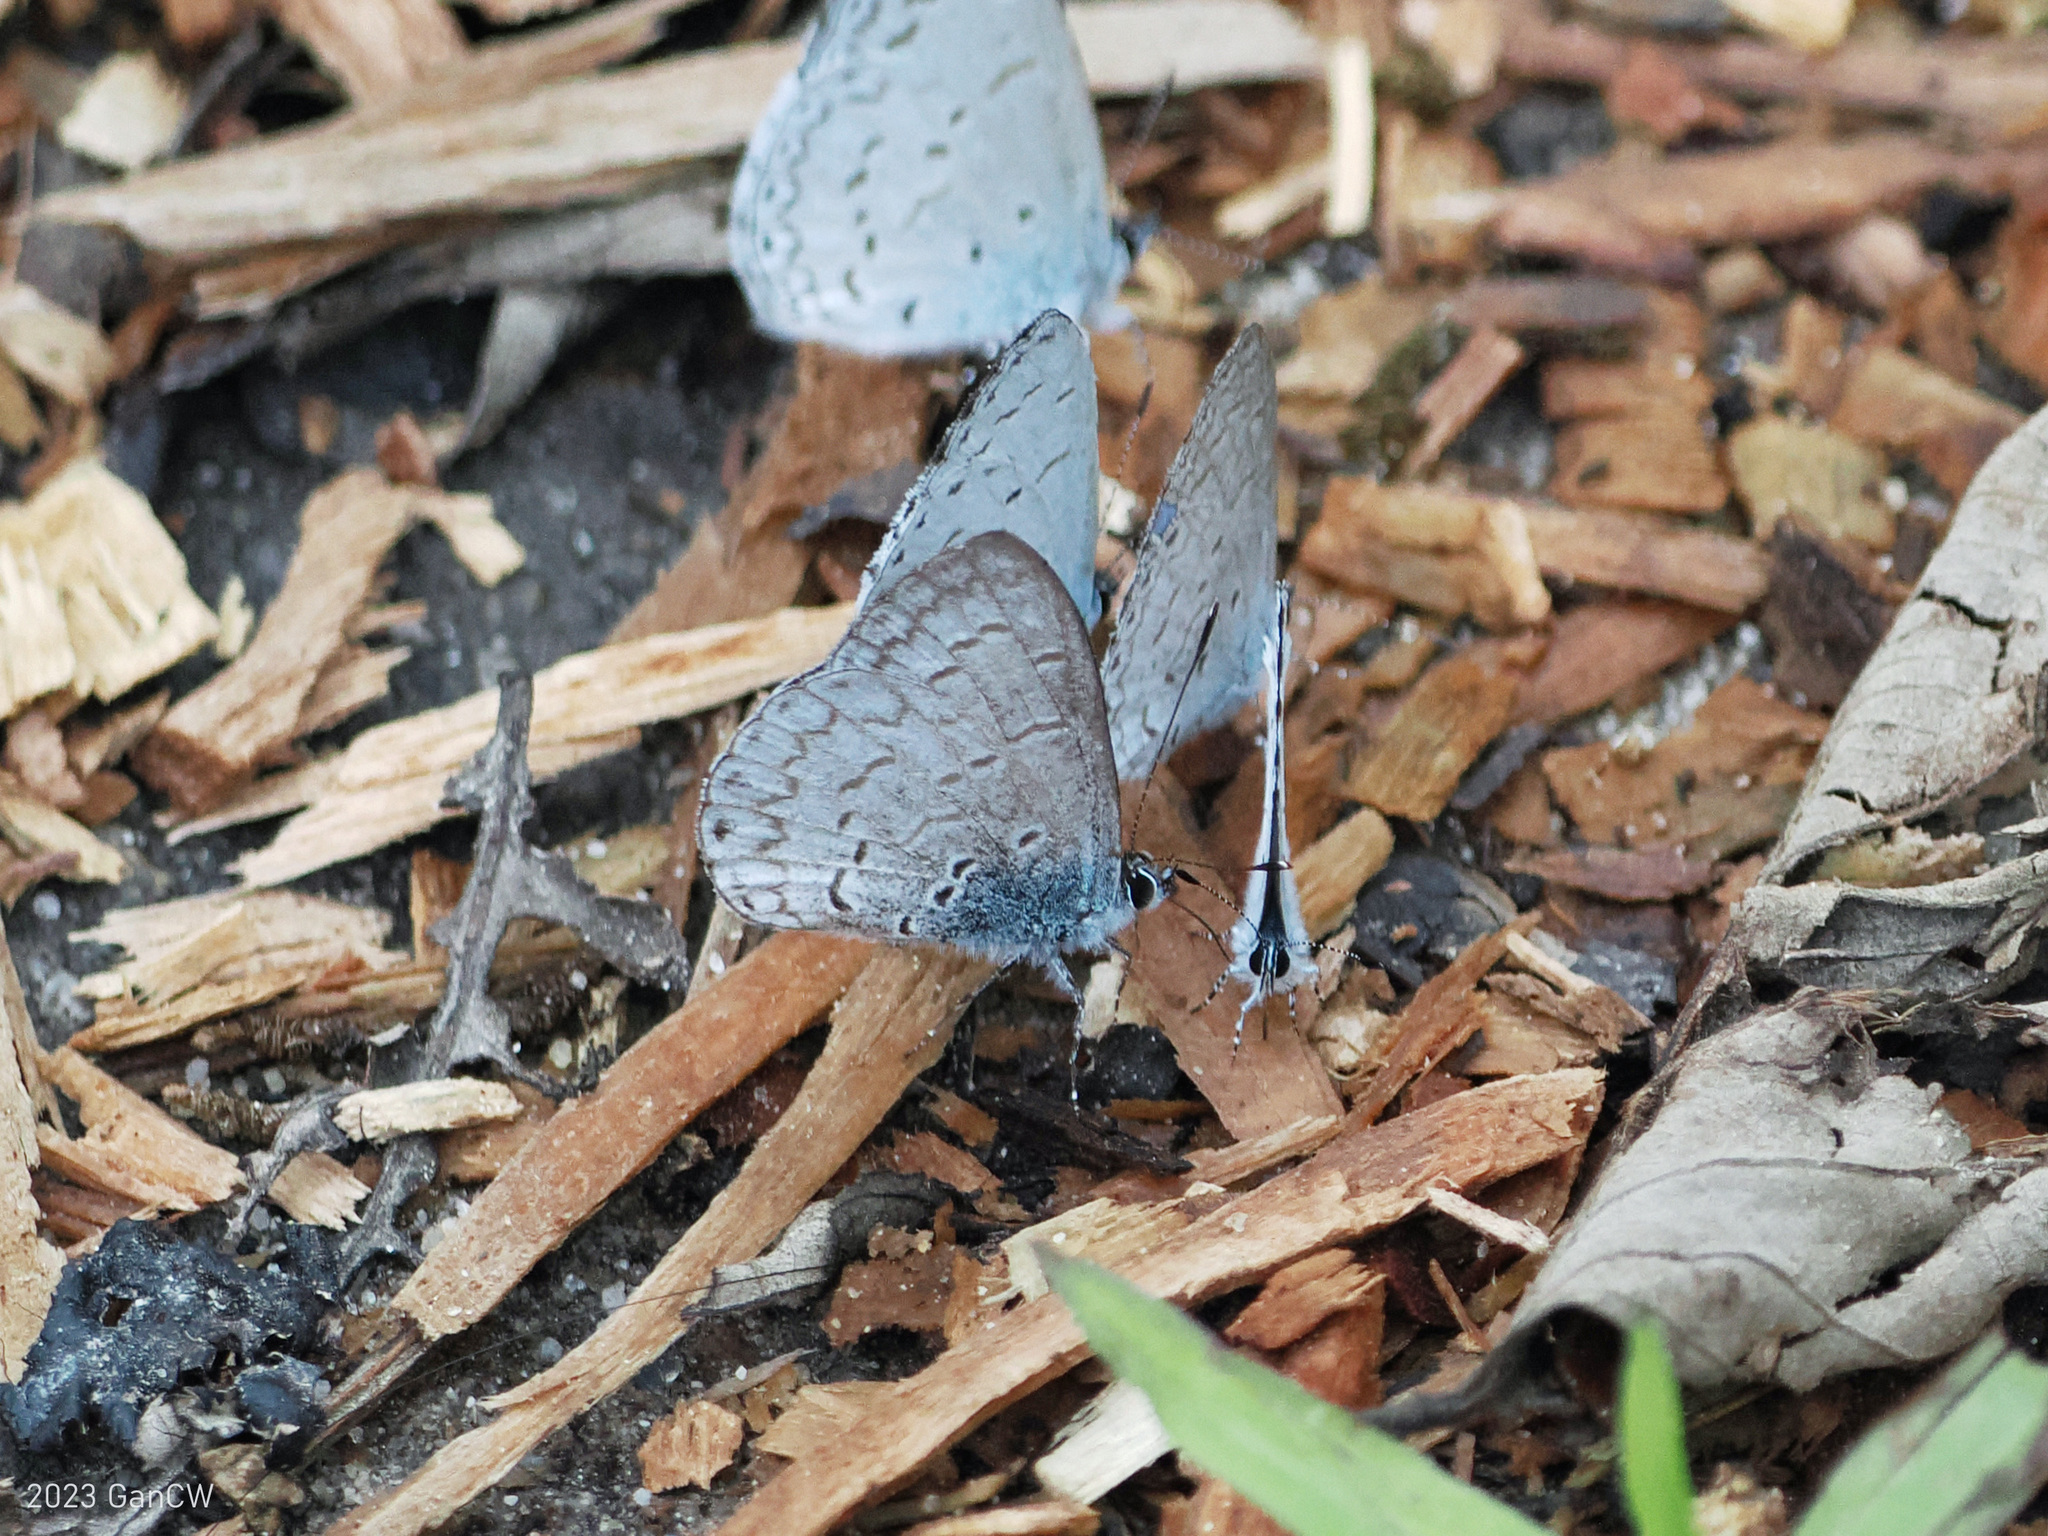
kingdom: Animalia
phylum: Arthropoda
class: Insecta
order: Lepidoptera
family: Lycaenidae
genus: Lycaenopsis
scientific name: Lycaenopsis tsukadai
